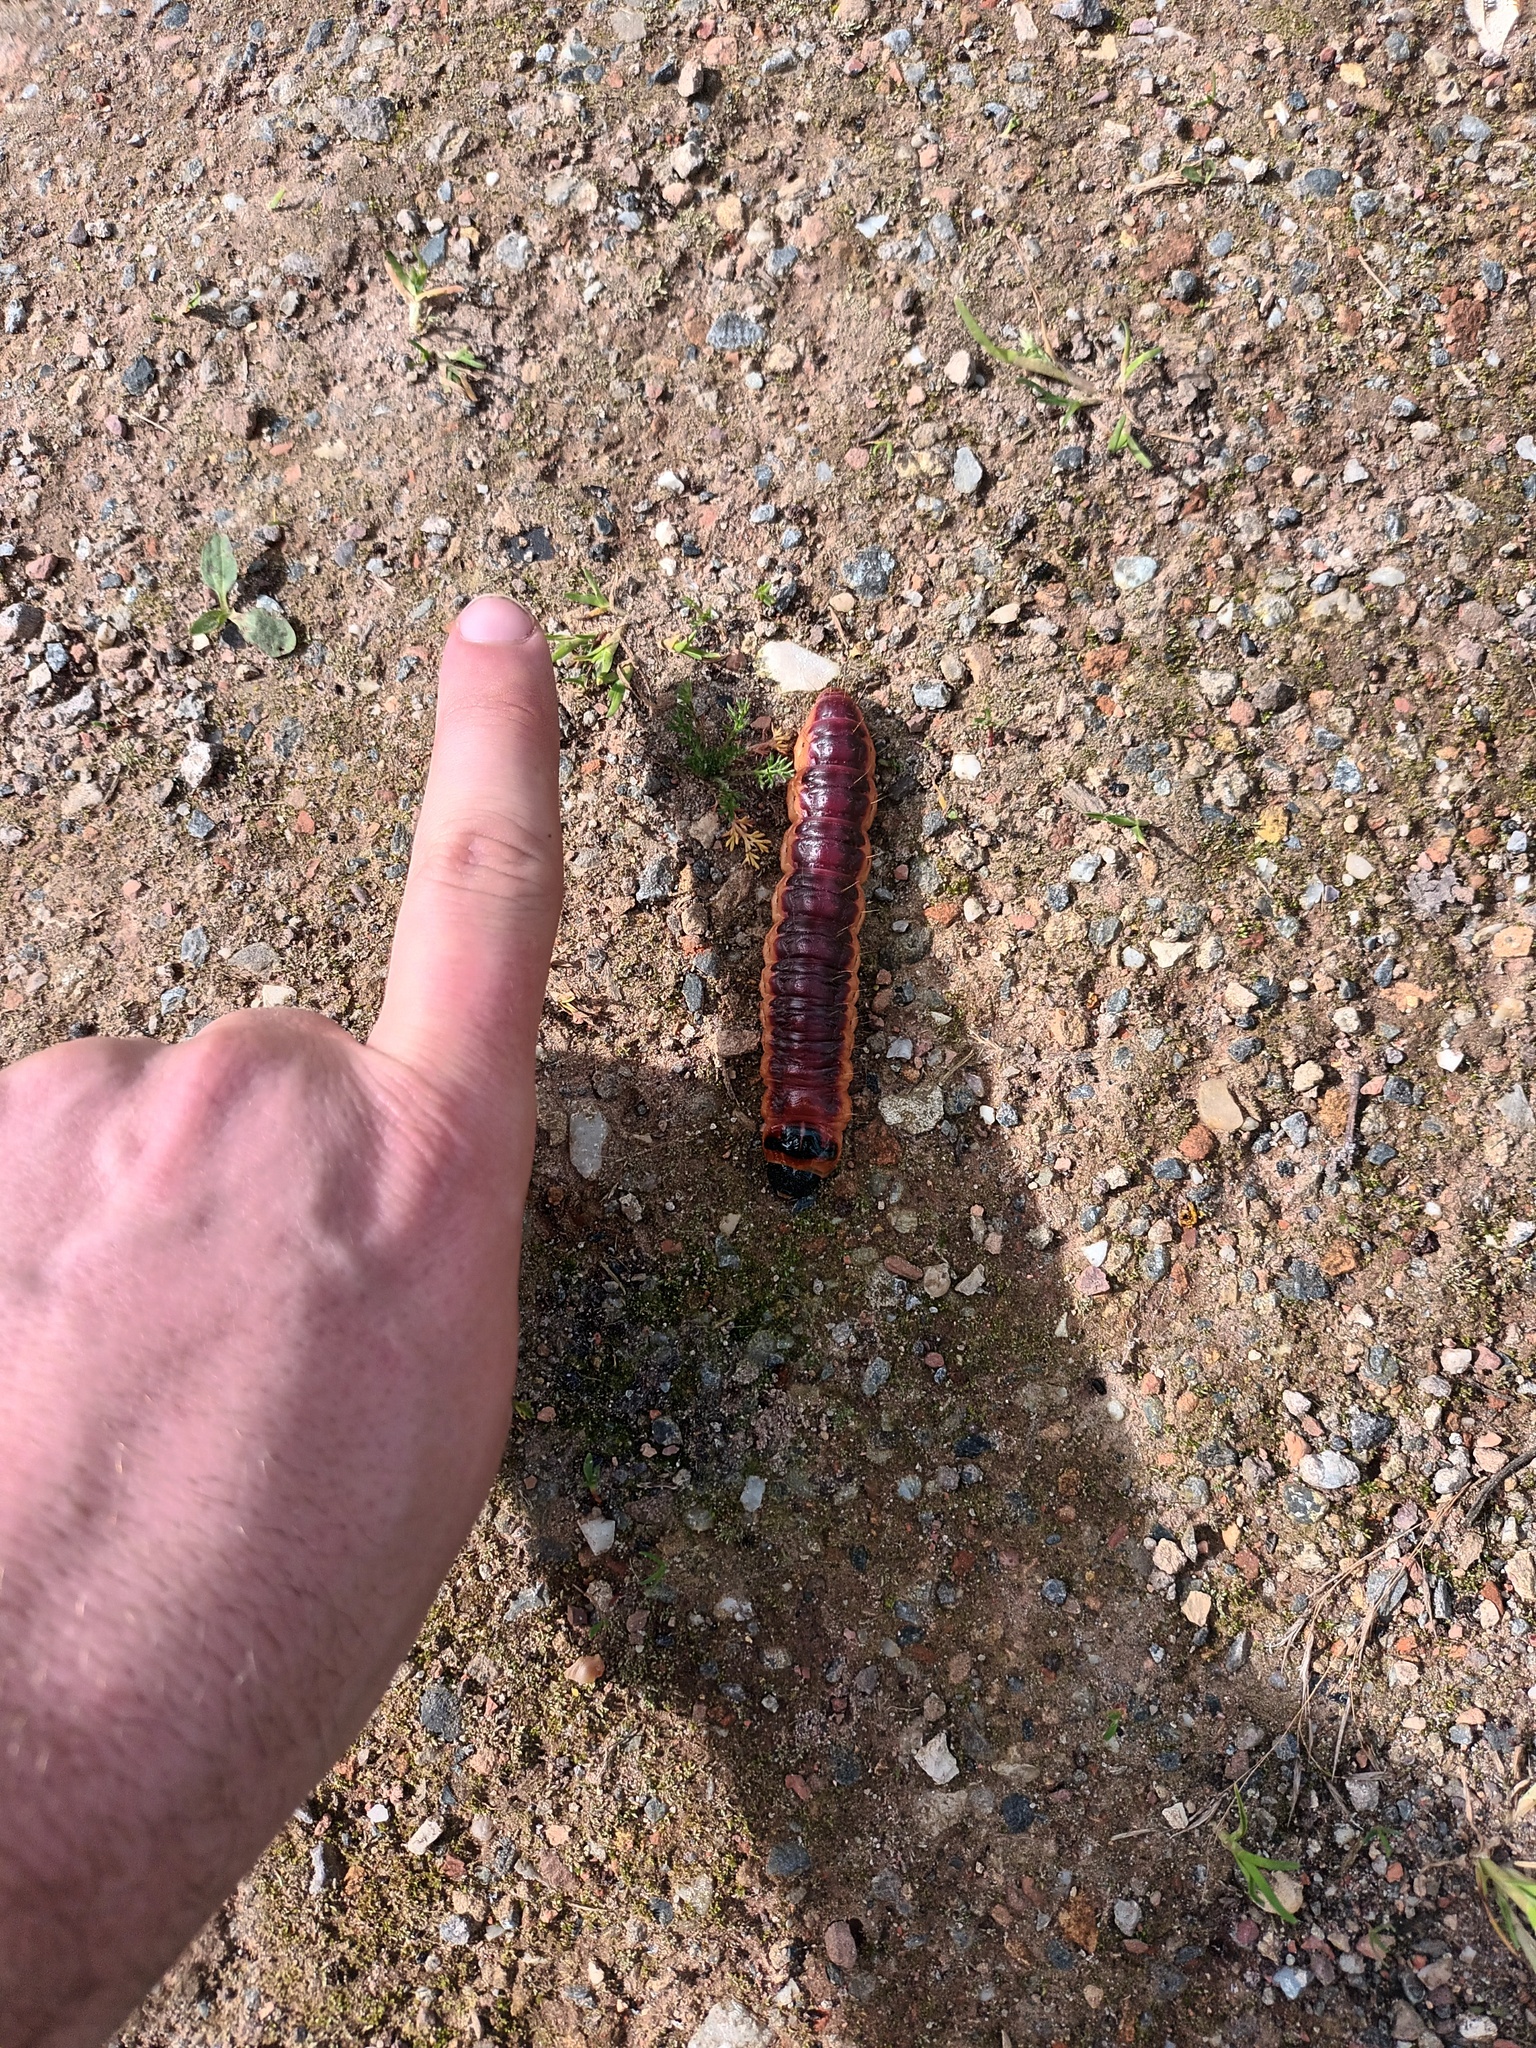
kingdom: Animalia
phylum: Arthropoda
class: Insecta
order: Lepidoptera
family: Cossidae
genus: Cossus
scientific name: Cossus cossus
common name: Goat moth
